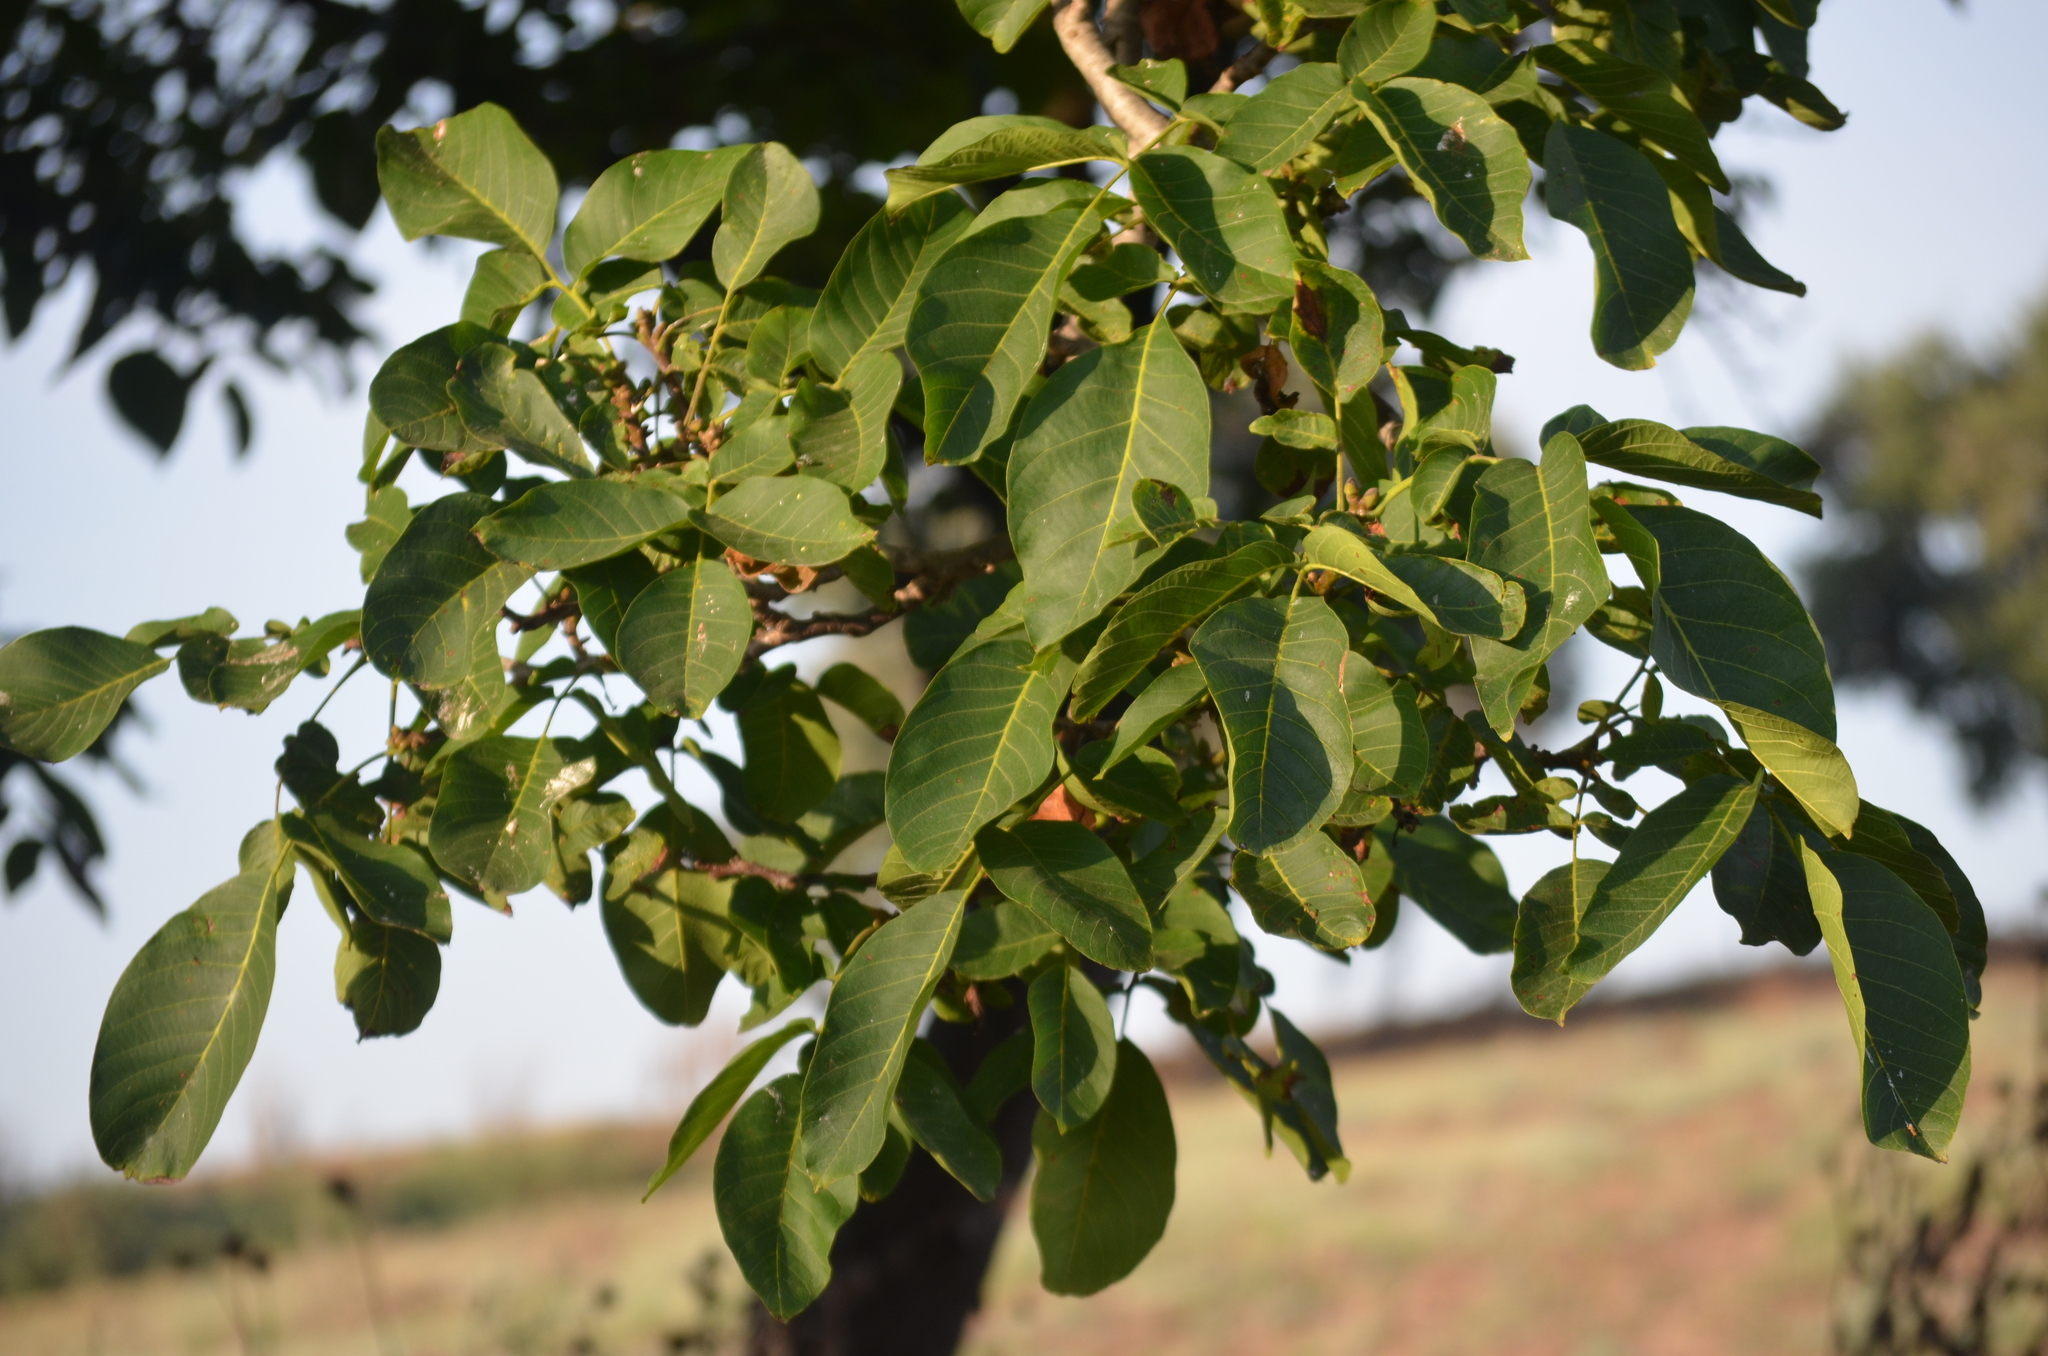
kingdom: Plantae
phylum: Tracheophyta
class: Magnoliopsida
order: Fagales
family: Juglandaceae
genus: Juglans
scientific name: Juglans regia
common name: Walnut
